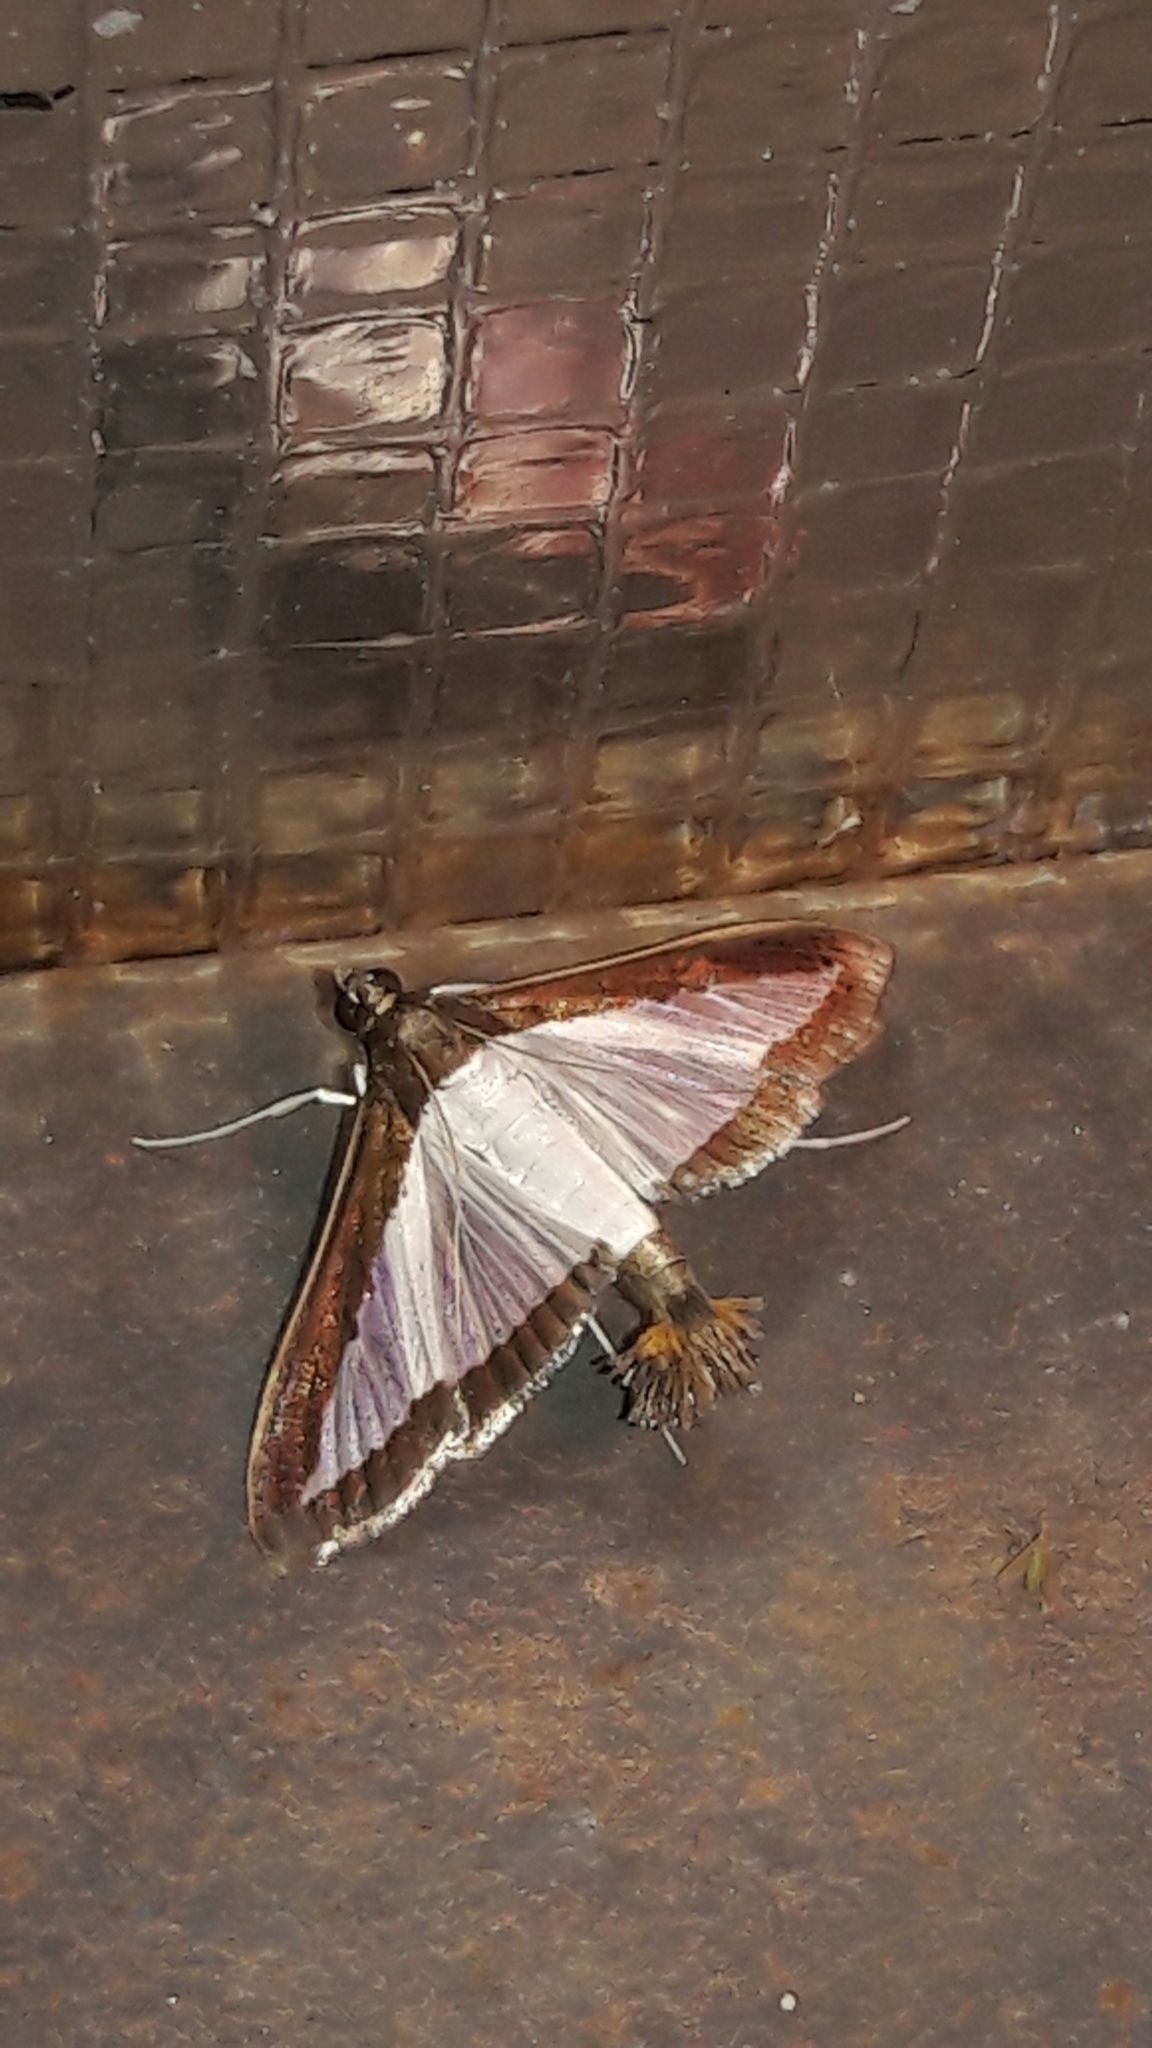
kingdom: Animalia
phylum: Arthropoda
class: Insecta
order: Lepidoptera
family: Crambidae
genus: Diaphania
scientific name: Diaphania hyalinata
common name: Melonworm
